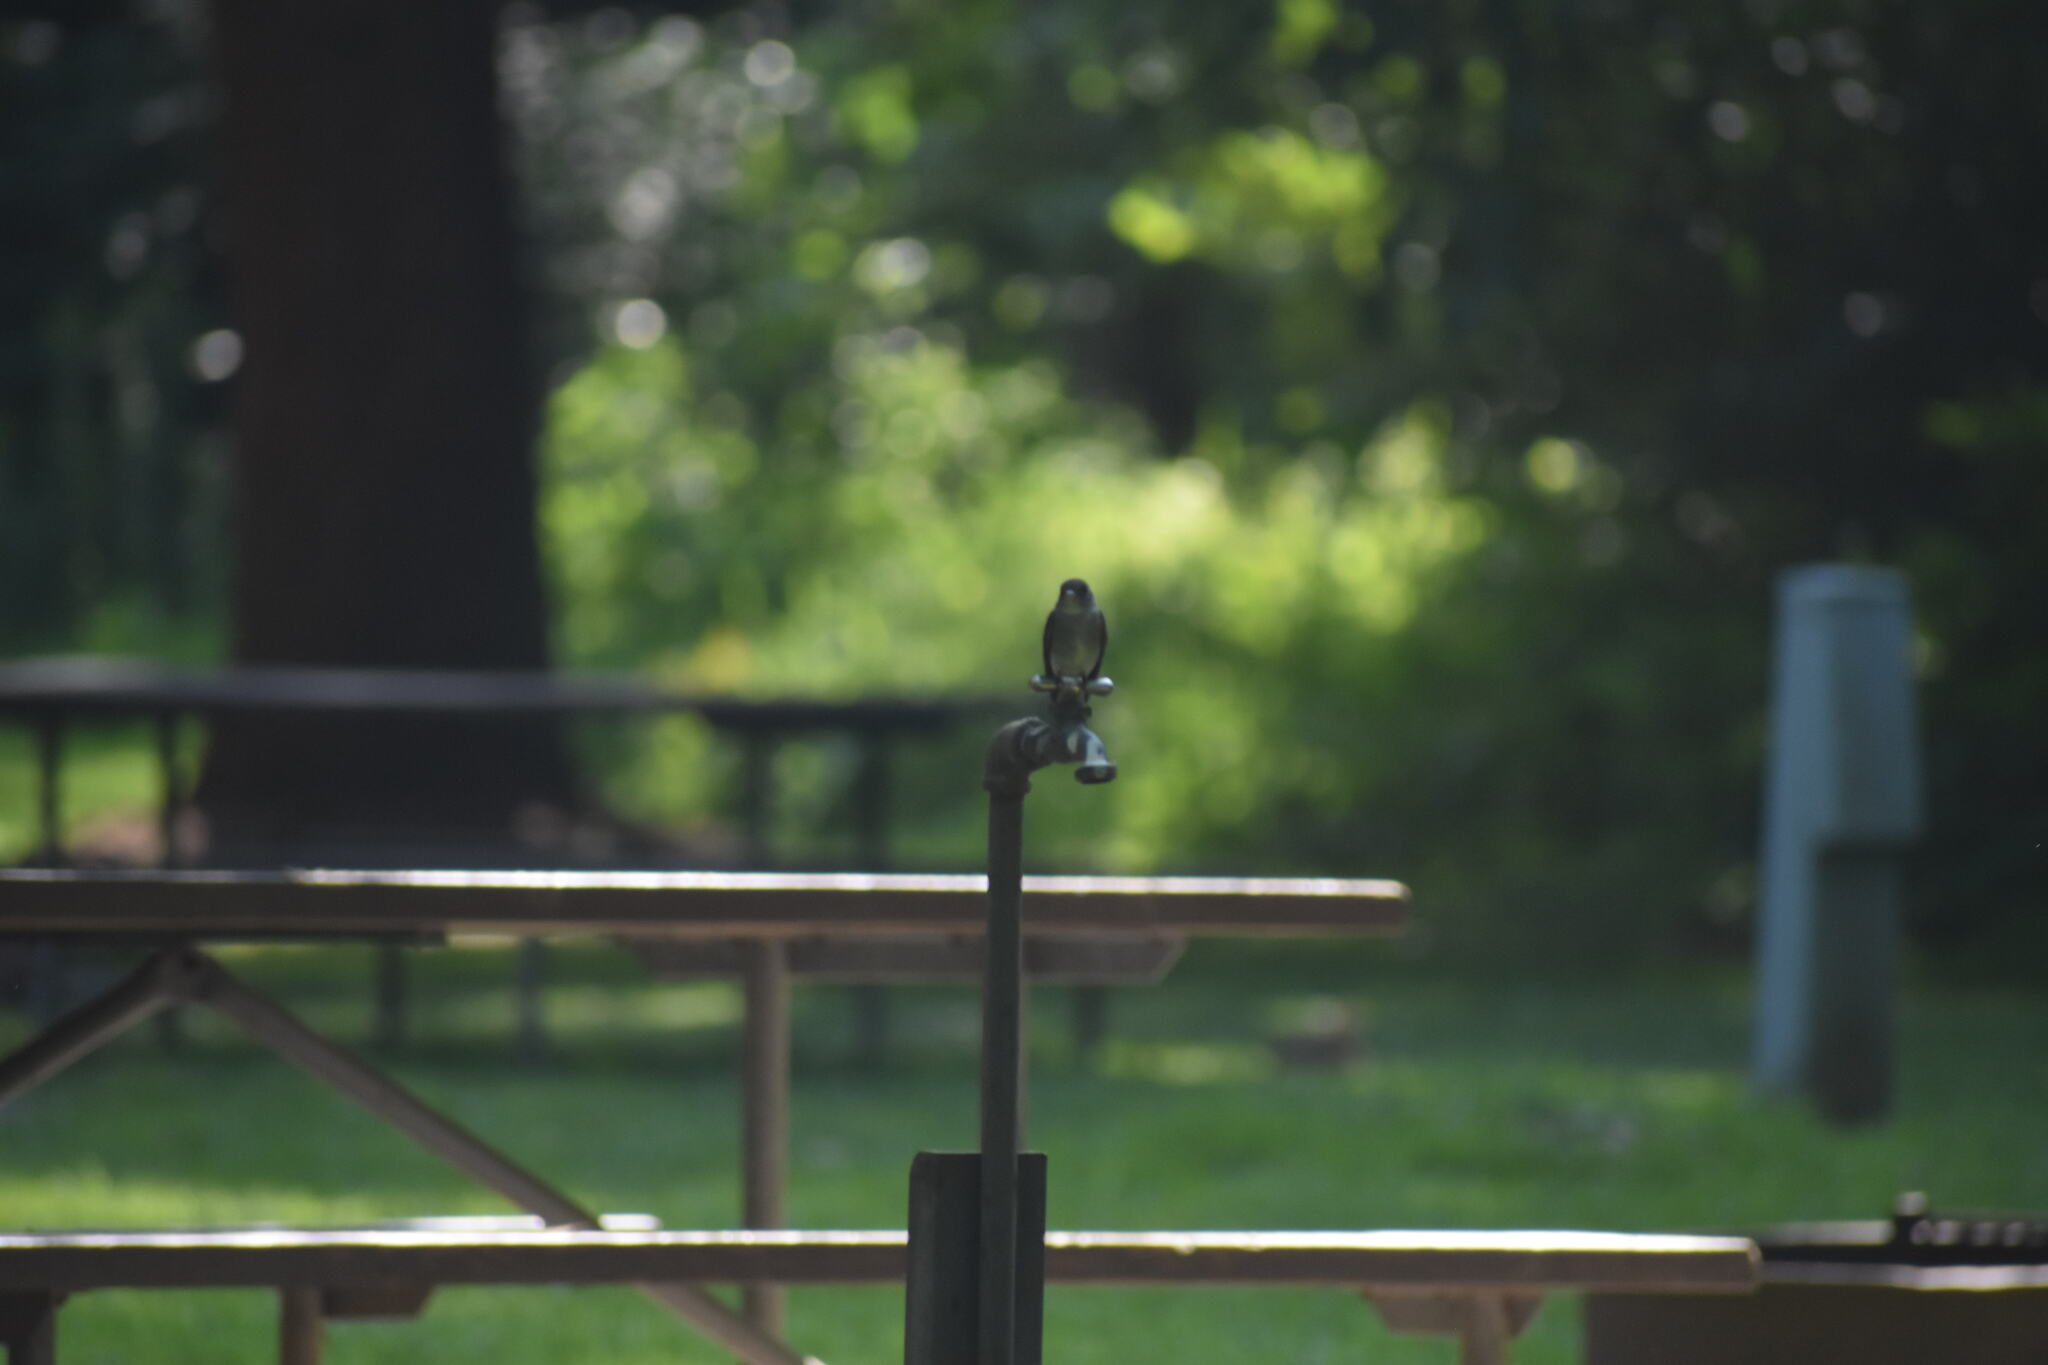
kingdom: Animalia
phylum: Chordata
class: Aves
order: Passeriformes
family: Tyrannidae
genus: Contopus
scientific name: Contopus virens
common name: Eastern wood-pewee
